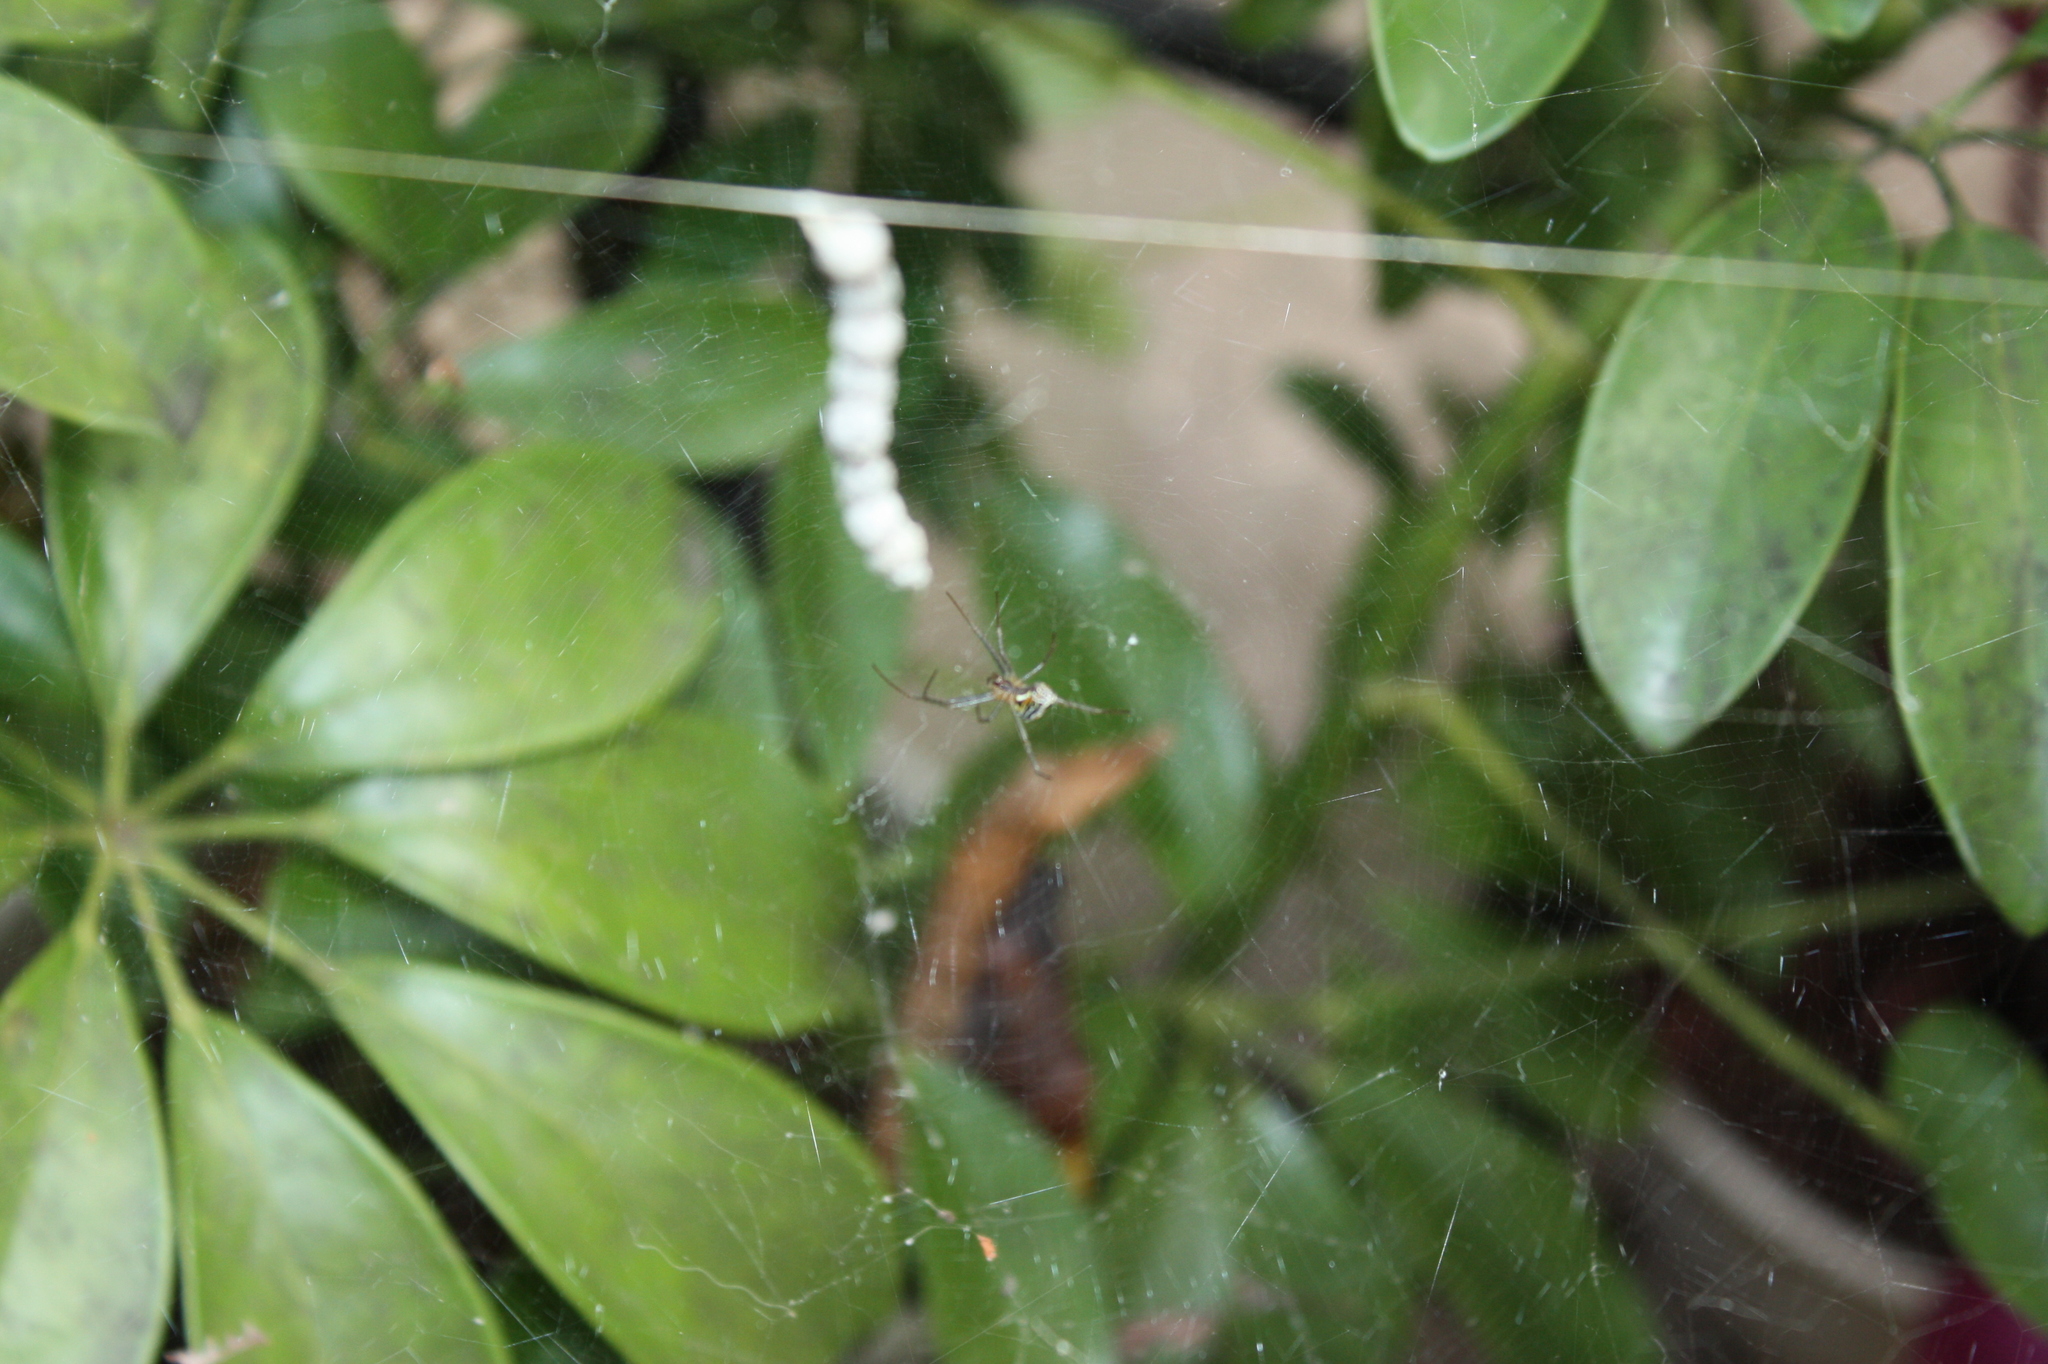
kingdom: Animalia
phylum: Arthropoda
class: Arachnida
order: Araneae
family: Araneidae
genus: Mecynogea
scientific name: Mecynogea lemniscata
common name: Orb weavers
